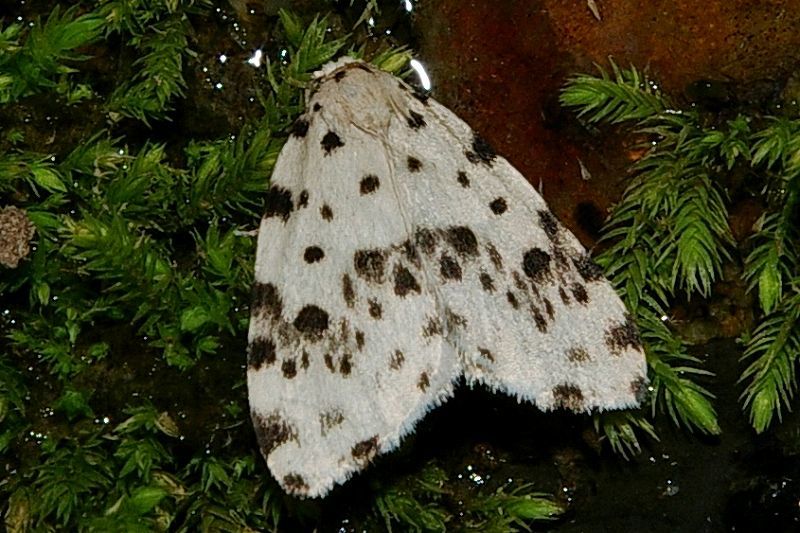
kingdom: Animalia
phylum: Arthropoda
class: Insecta
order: Lepidoptera
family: Erebidae
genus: Siccia
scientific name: Siccia altaica
